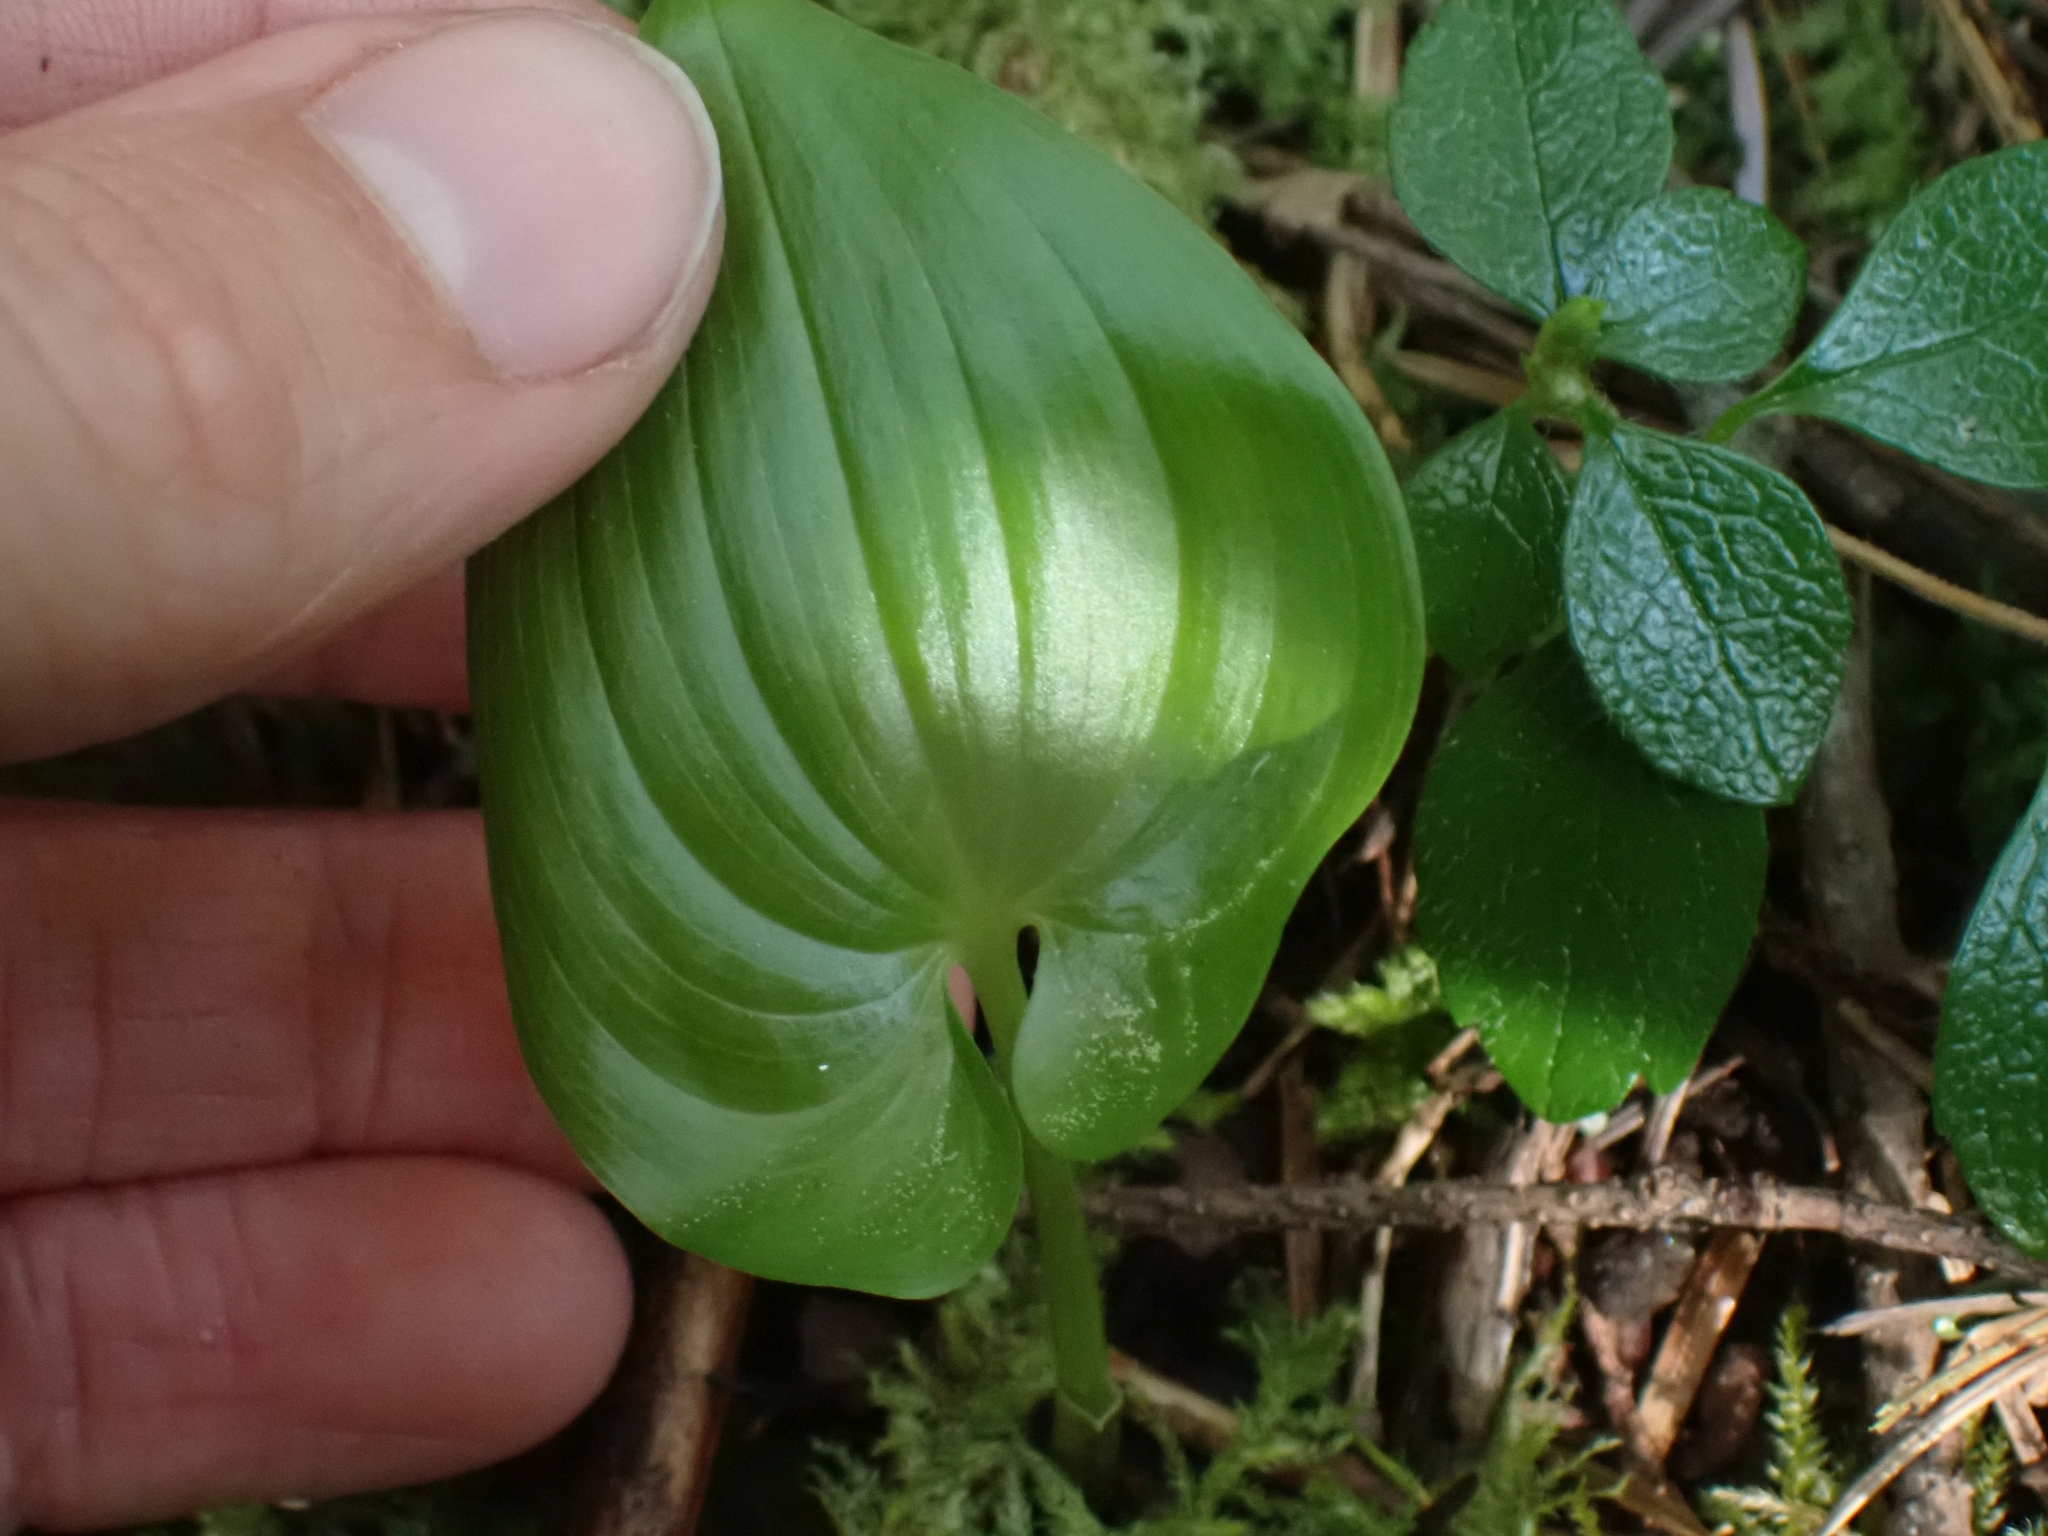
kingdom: Plantae
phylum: Tracheophyta
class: Liliopsida
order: Asparagales
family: Asparagaceae
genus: Maianthemum
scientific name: Maianthemum dilatatum
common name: False lily-of-the-valley
